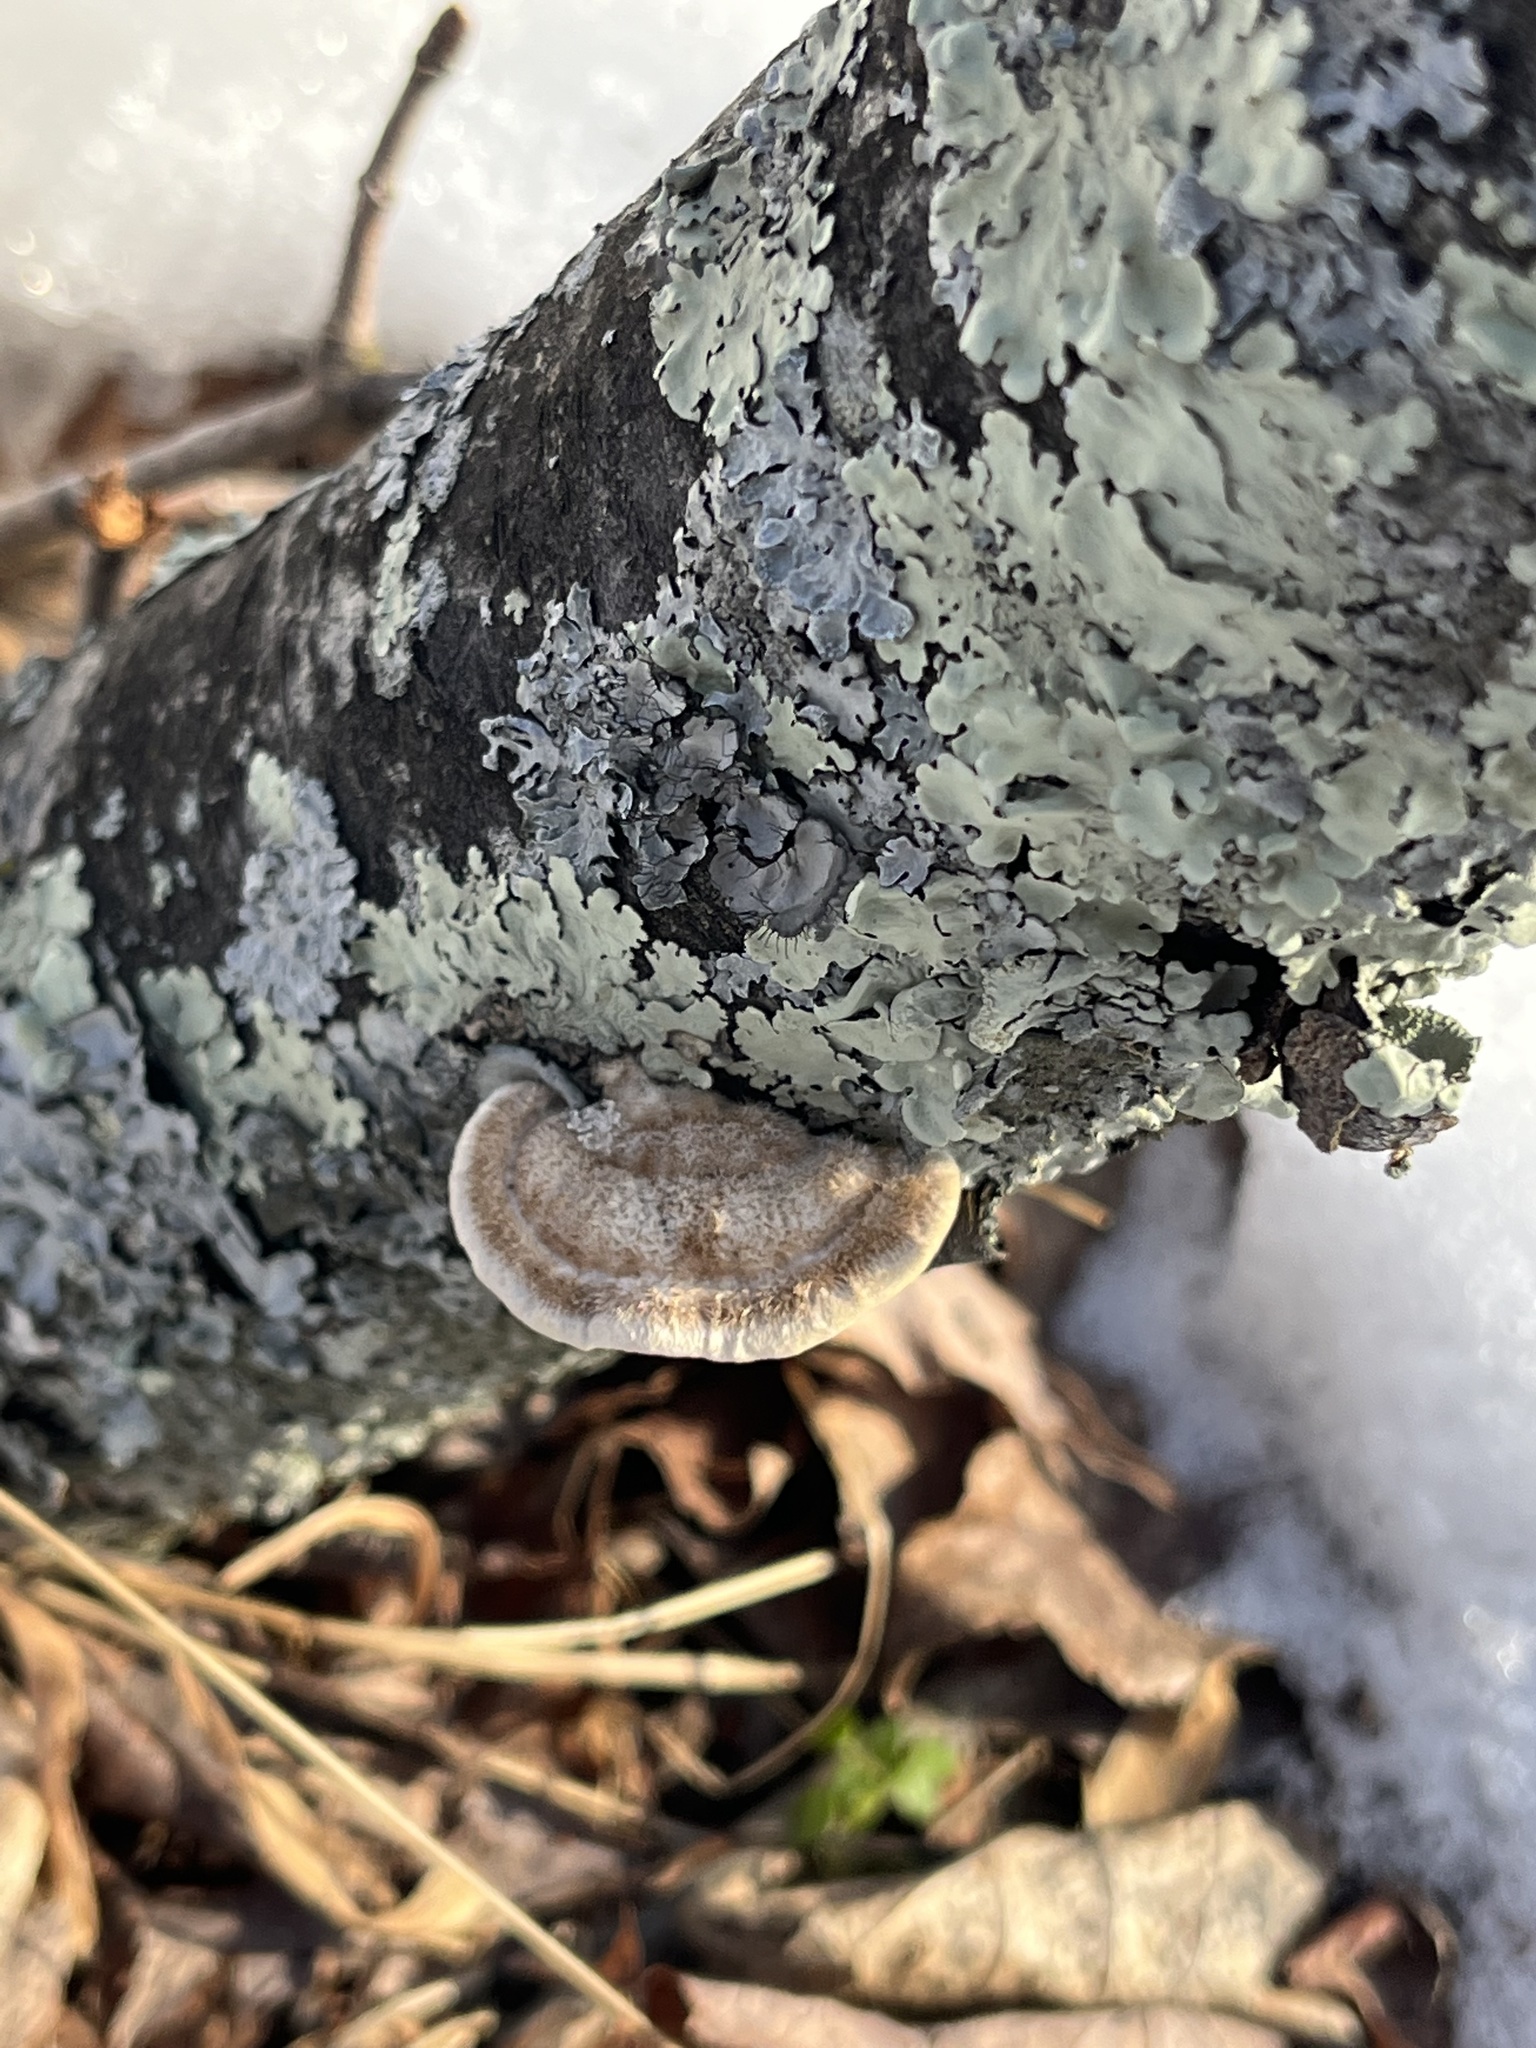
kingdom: Fungi
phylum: Basidiomycota
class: Agaricomycetes
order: Polyporales
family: Polyporaceae
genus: Trametes
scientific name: Trametes hirsuta
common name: Hairy bracket
